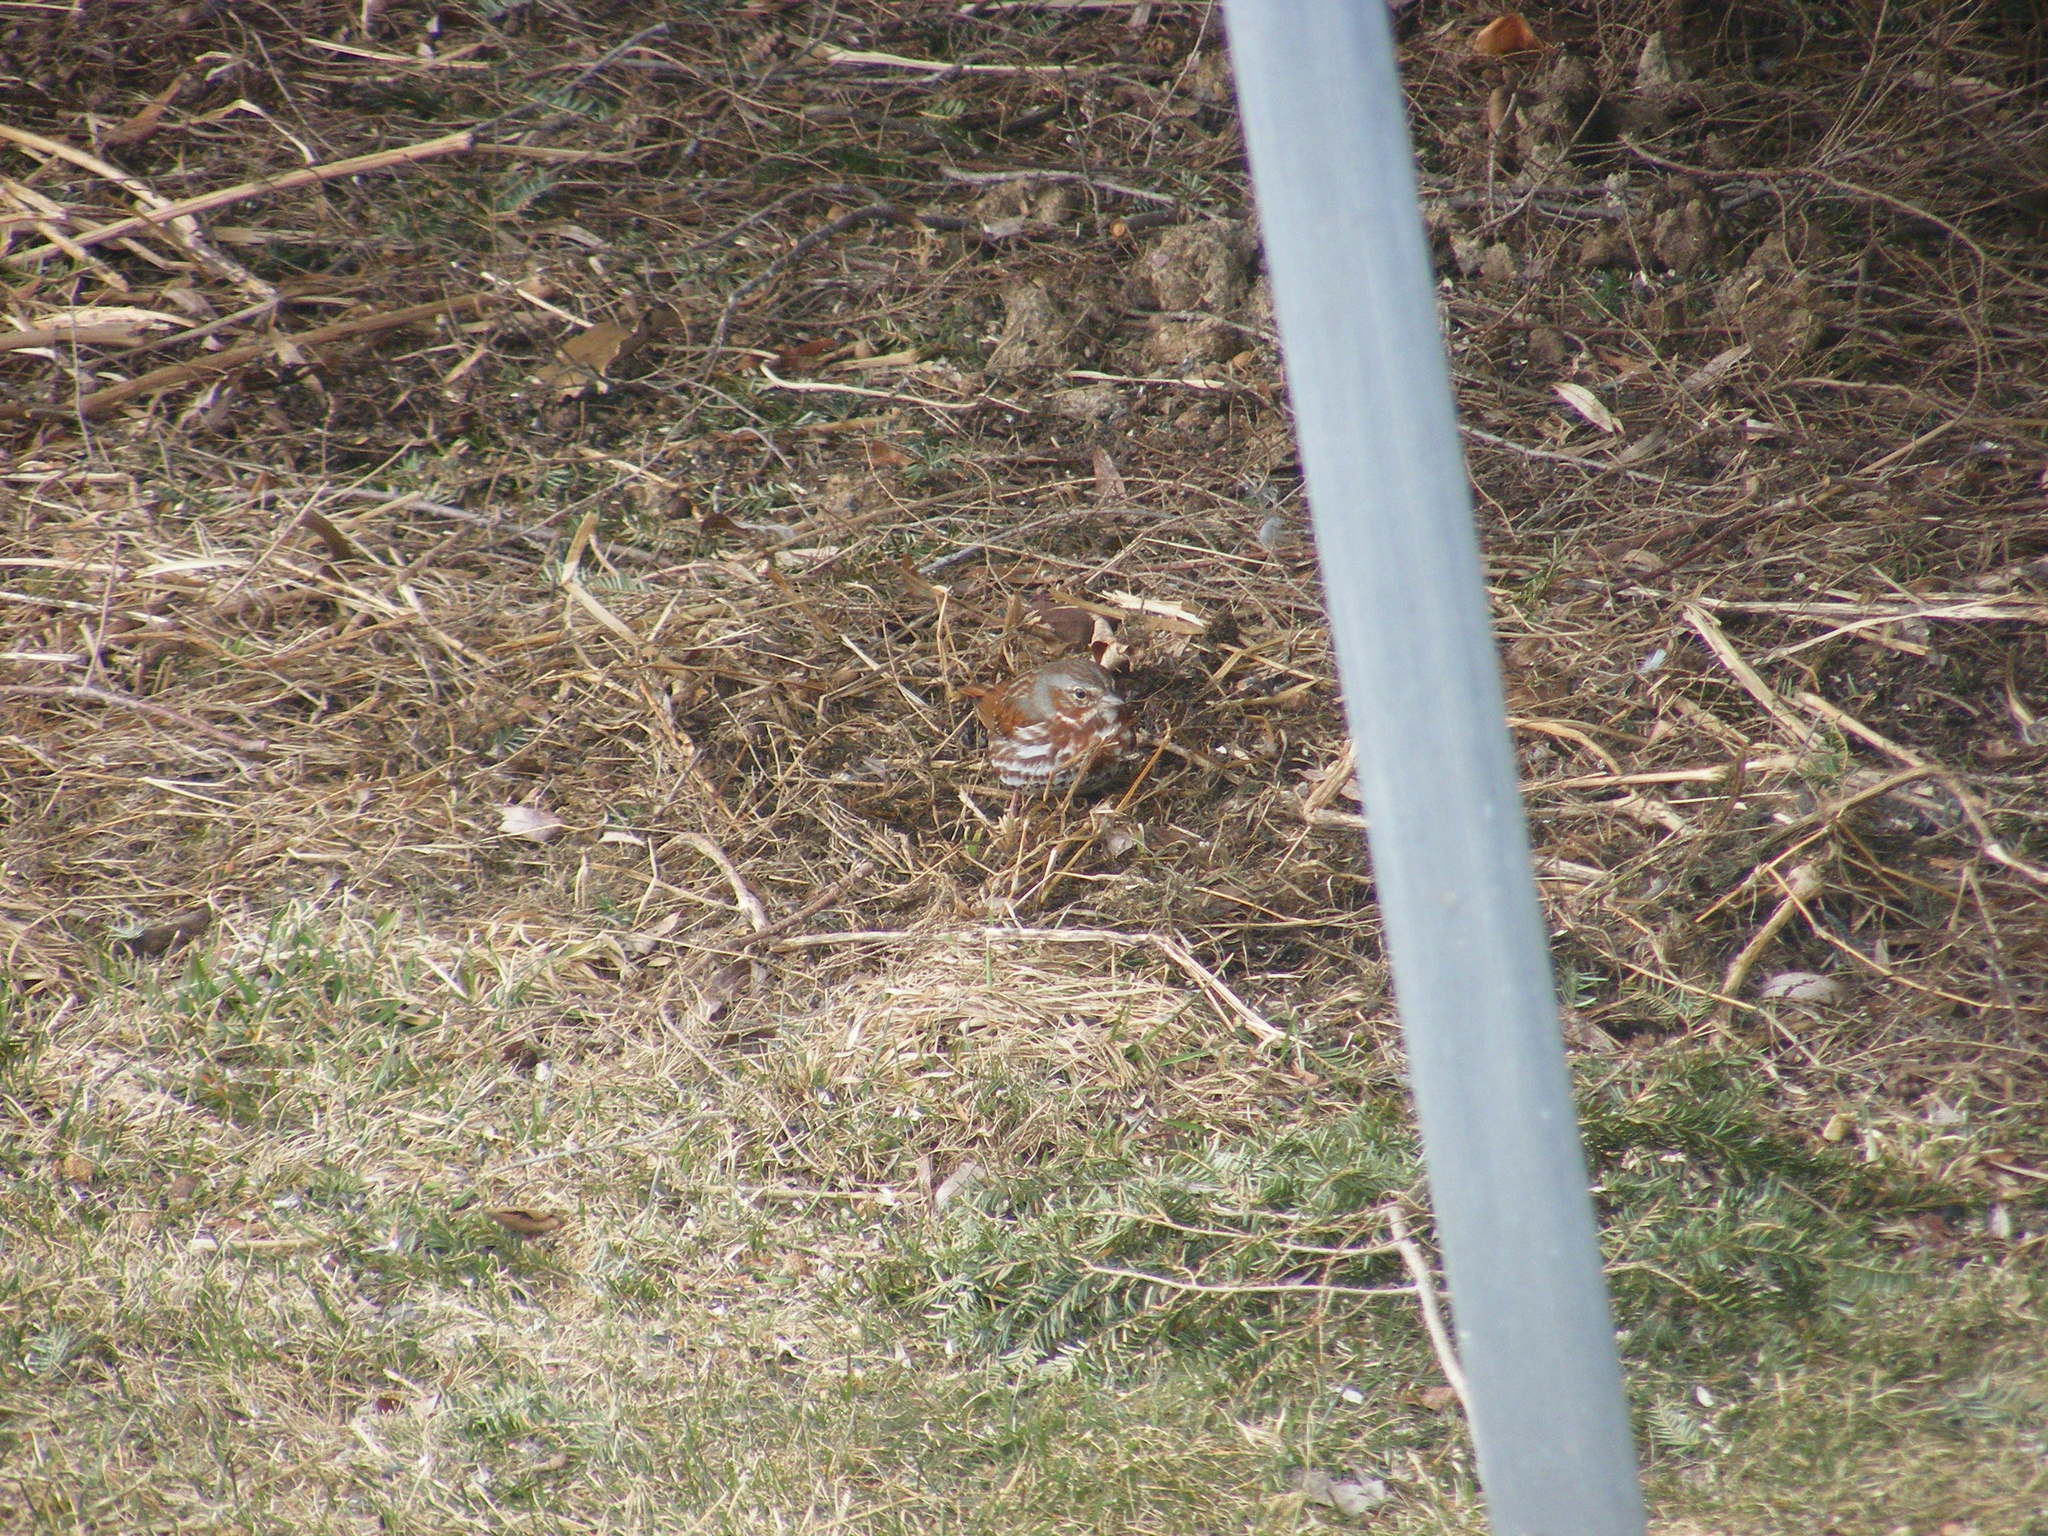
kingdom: Animalia
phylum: Chordata
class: Aves
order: Passeriformes
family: Passerellidae
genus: Passerella
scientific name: Passerella iliaca
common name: Fox sparrow
